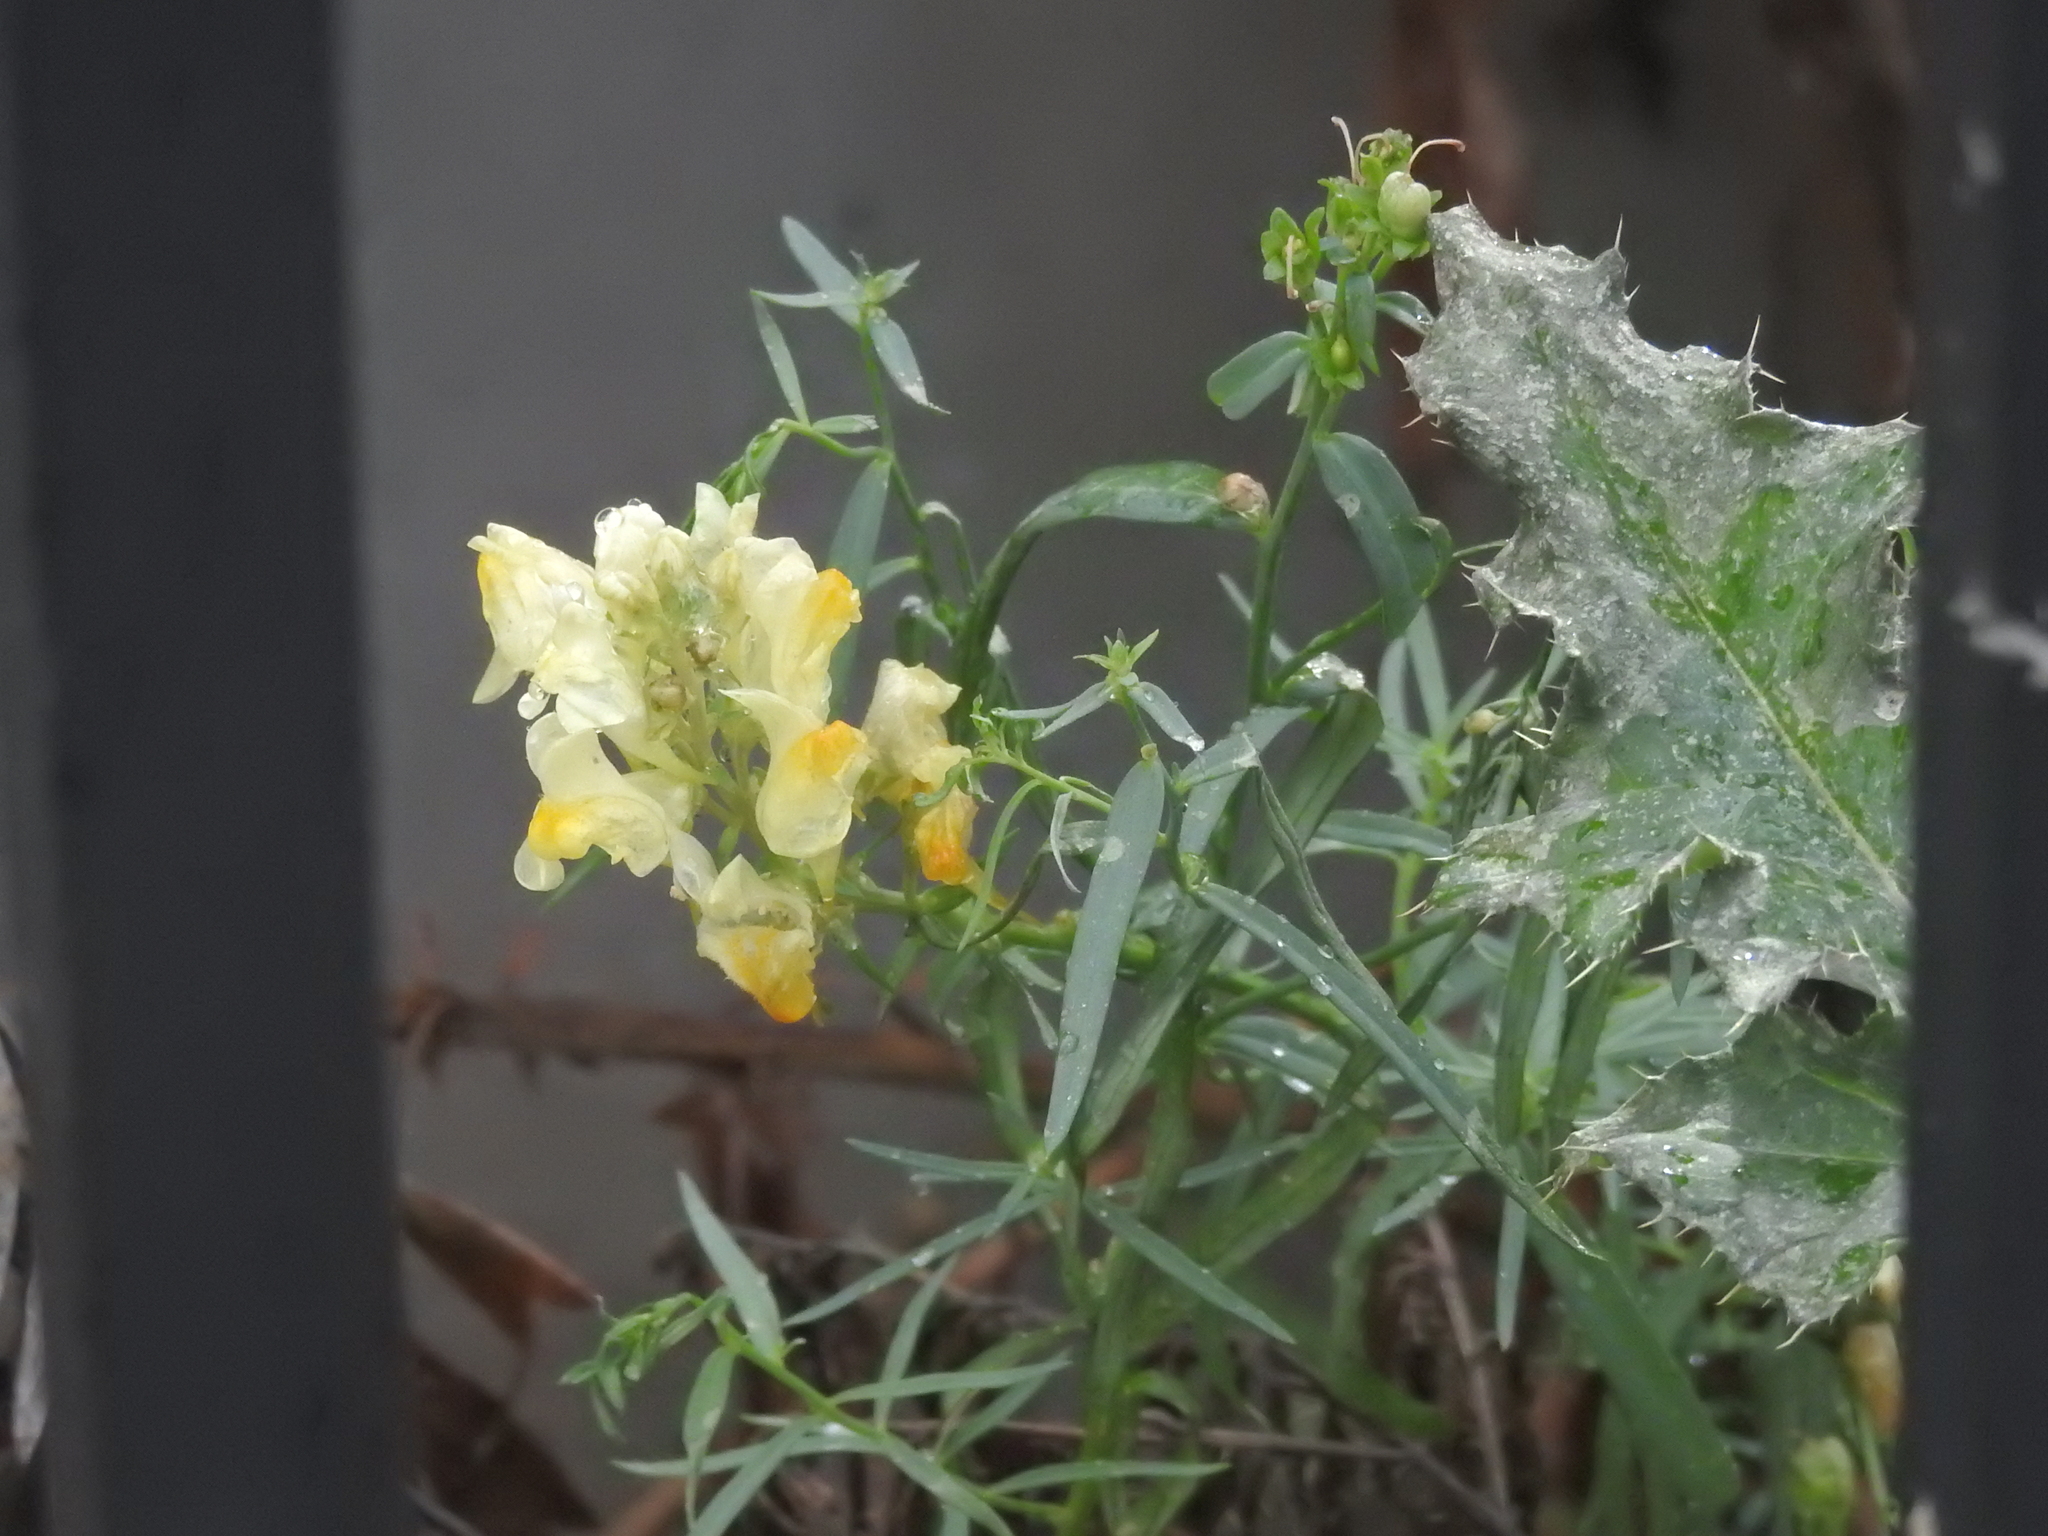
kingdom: Plantae
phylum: Tracheophyta
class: Magnoliopsida
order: Lamiales
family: Plantaginaceae
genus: Linaria
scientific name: Linaria vulgaris
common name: Butter and eggs
